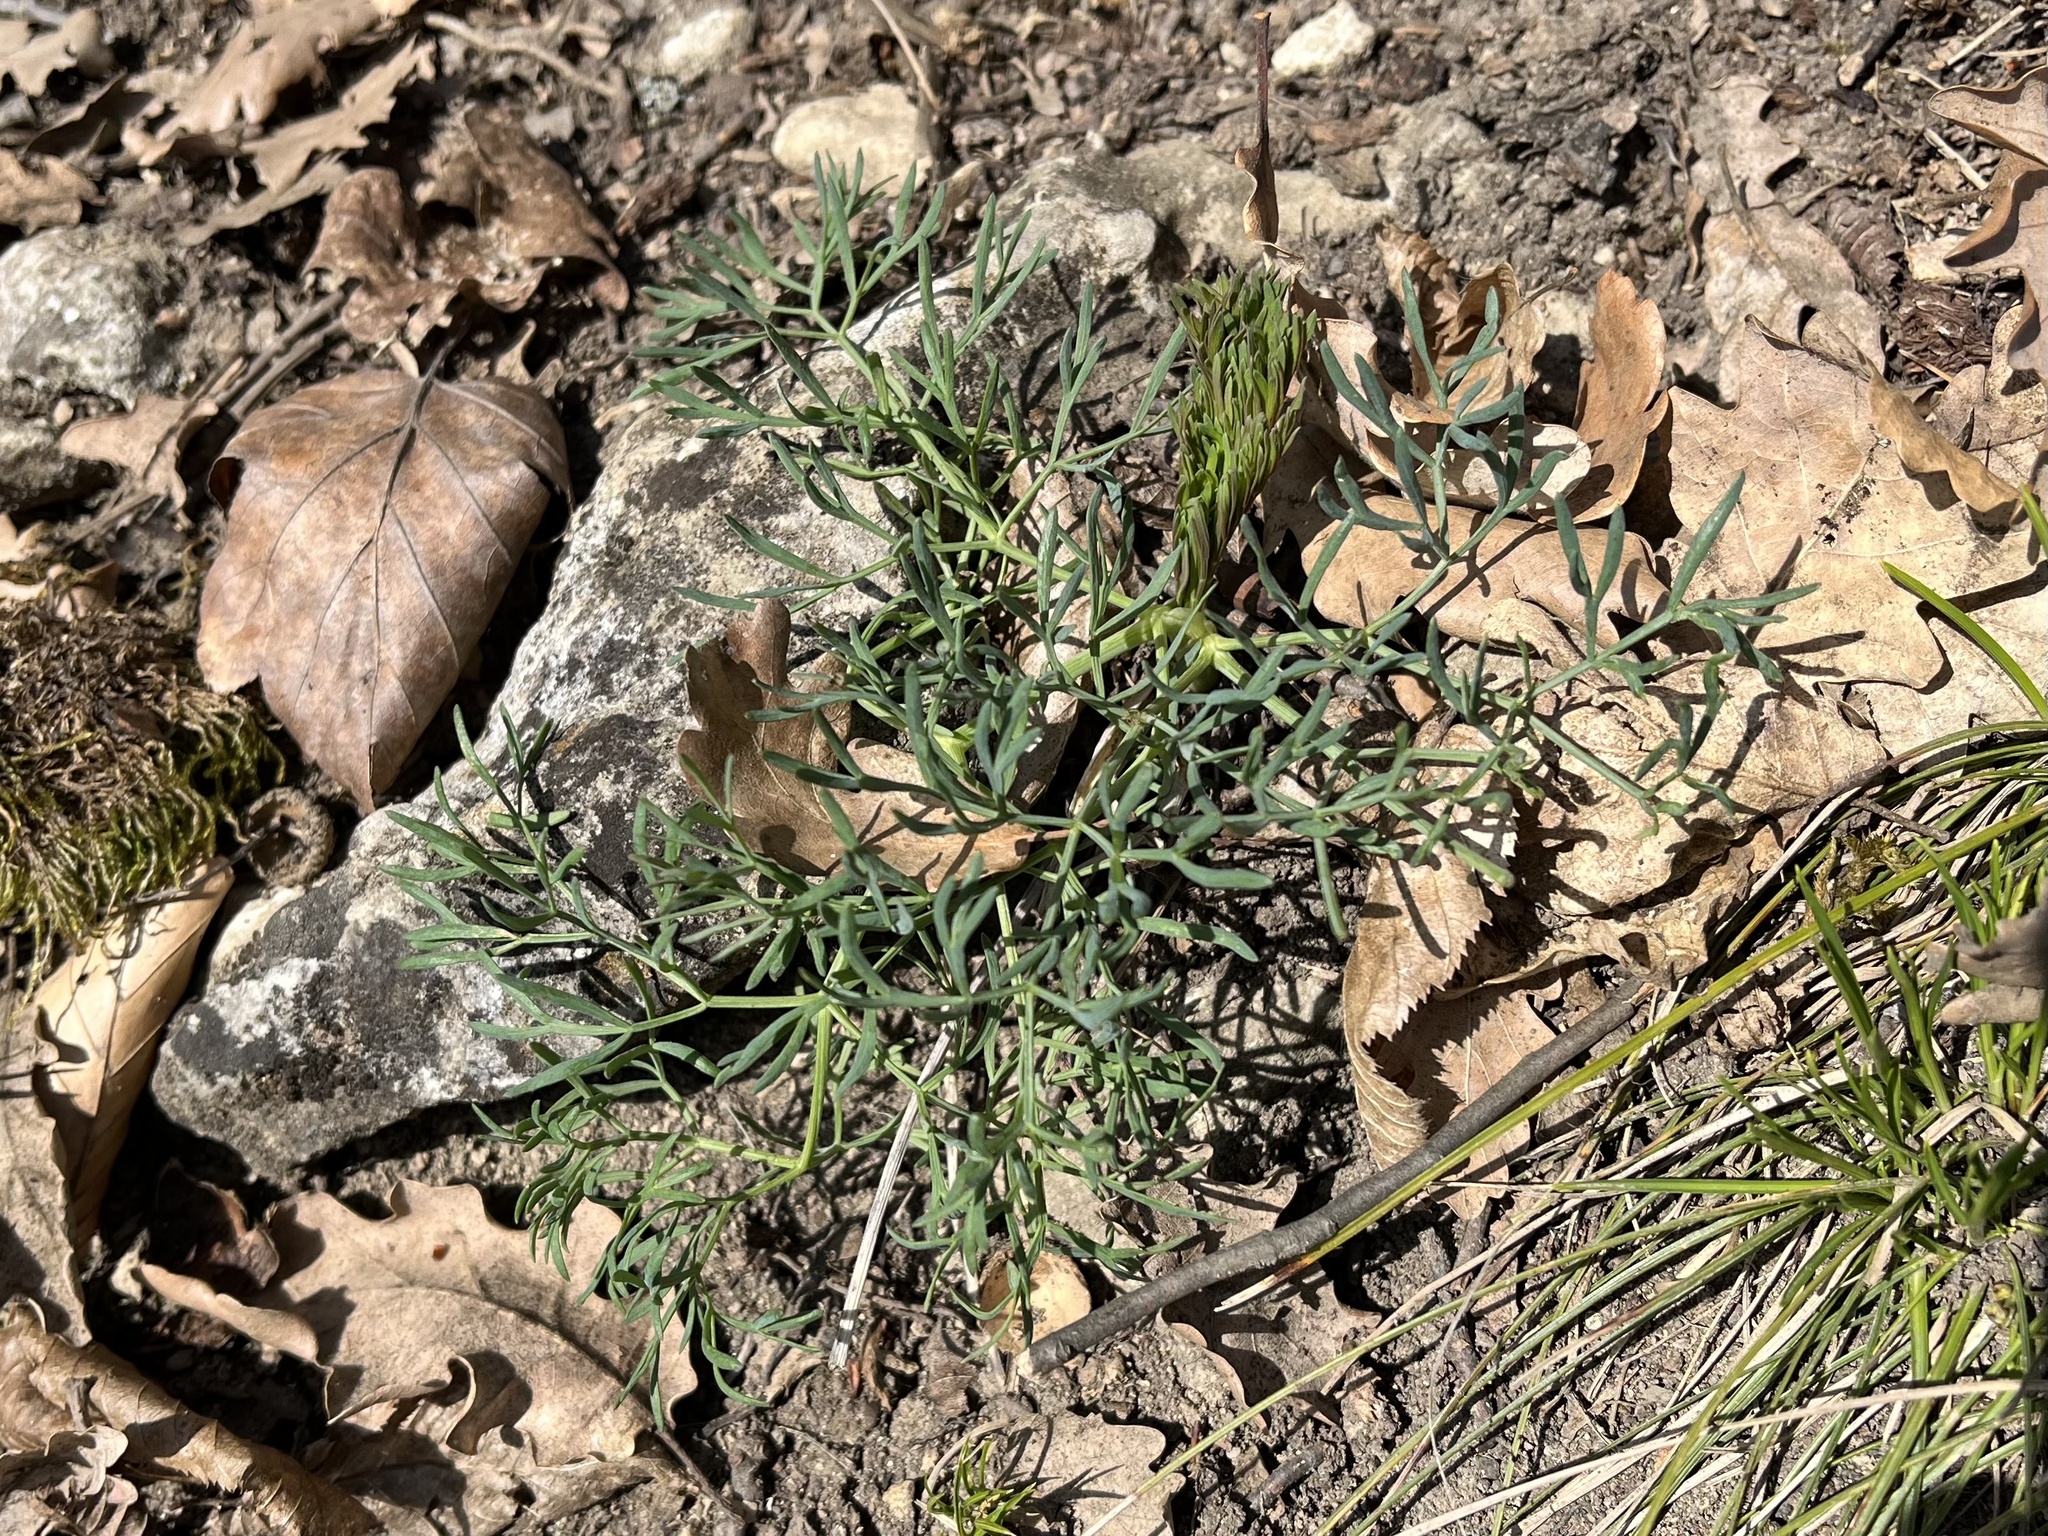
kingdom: Plantae
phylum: Tracheophyta
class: Magnoliopsida
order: Apiales
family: Apiaceae
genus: Seseli
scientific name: Seseli osseum
